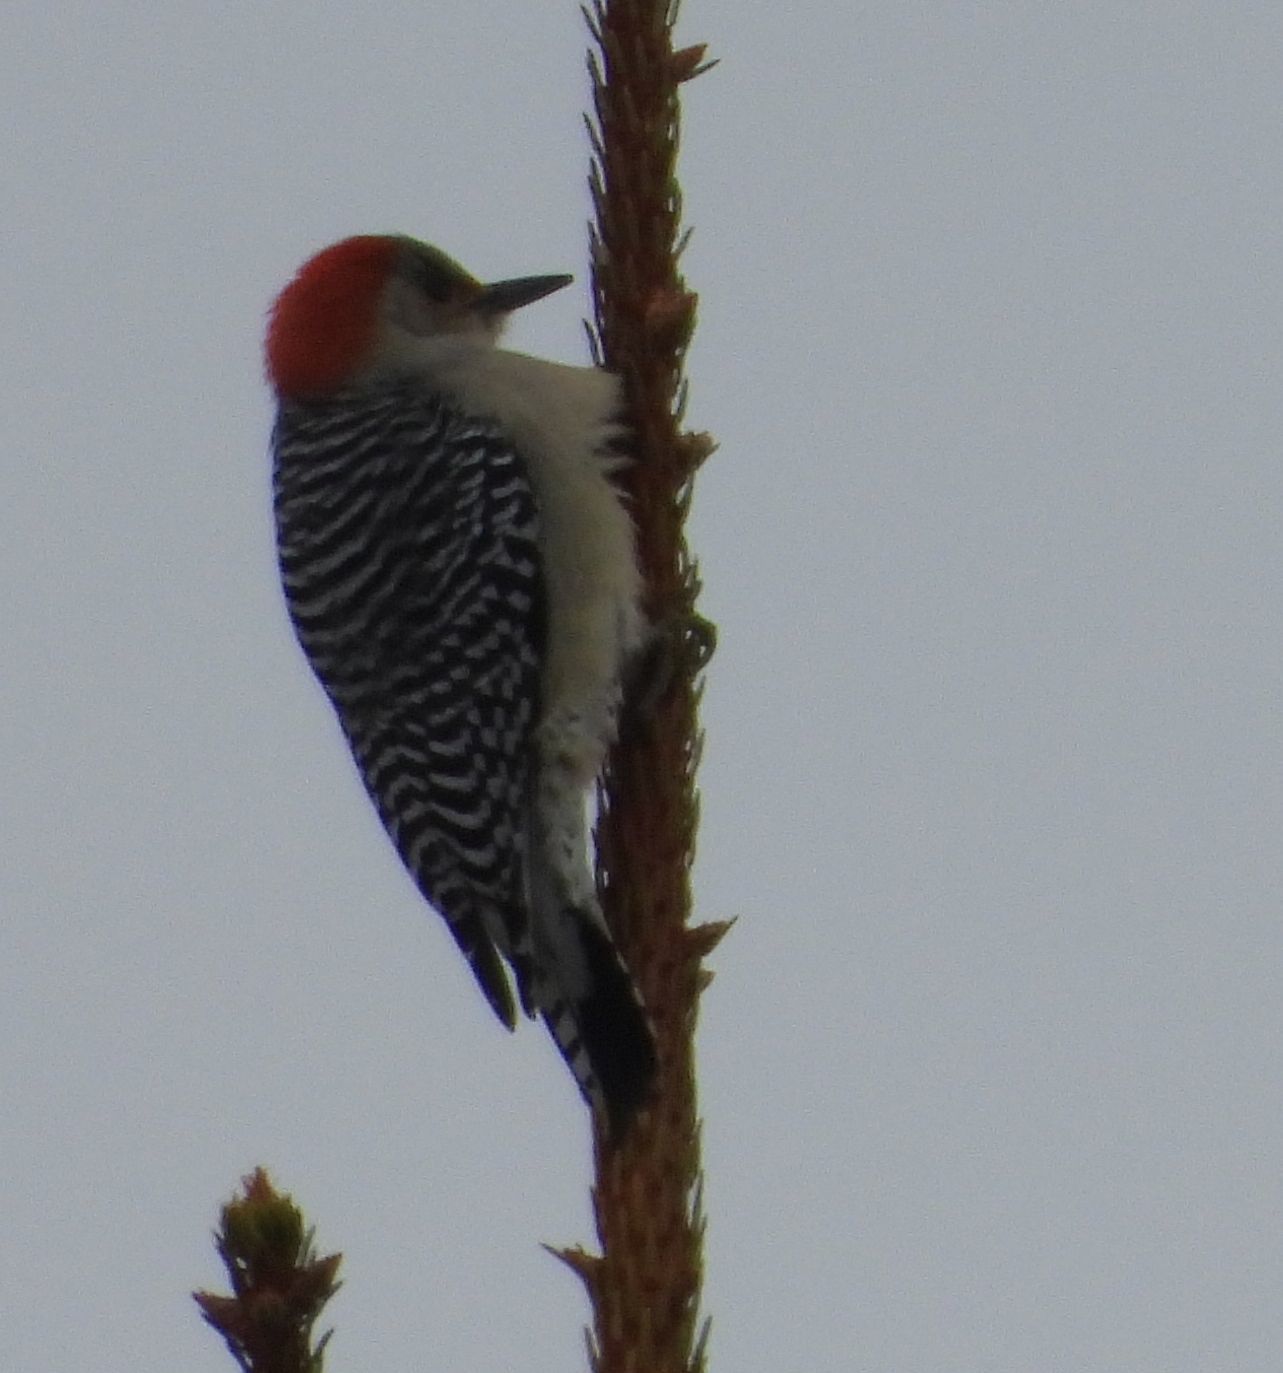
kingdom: Animalia
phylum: Chordata
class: Aves
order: Piciformes
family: Picidae
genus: Melanerpes
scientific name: Melanerpes carolinus
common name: Red-bellied woodpecker
